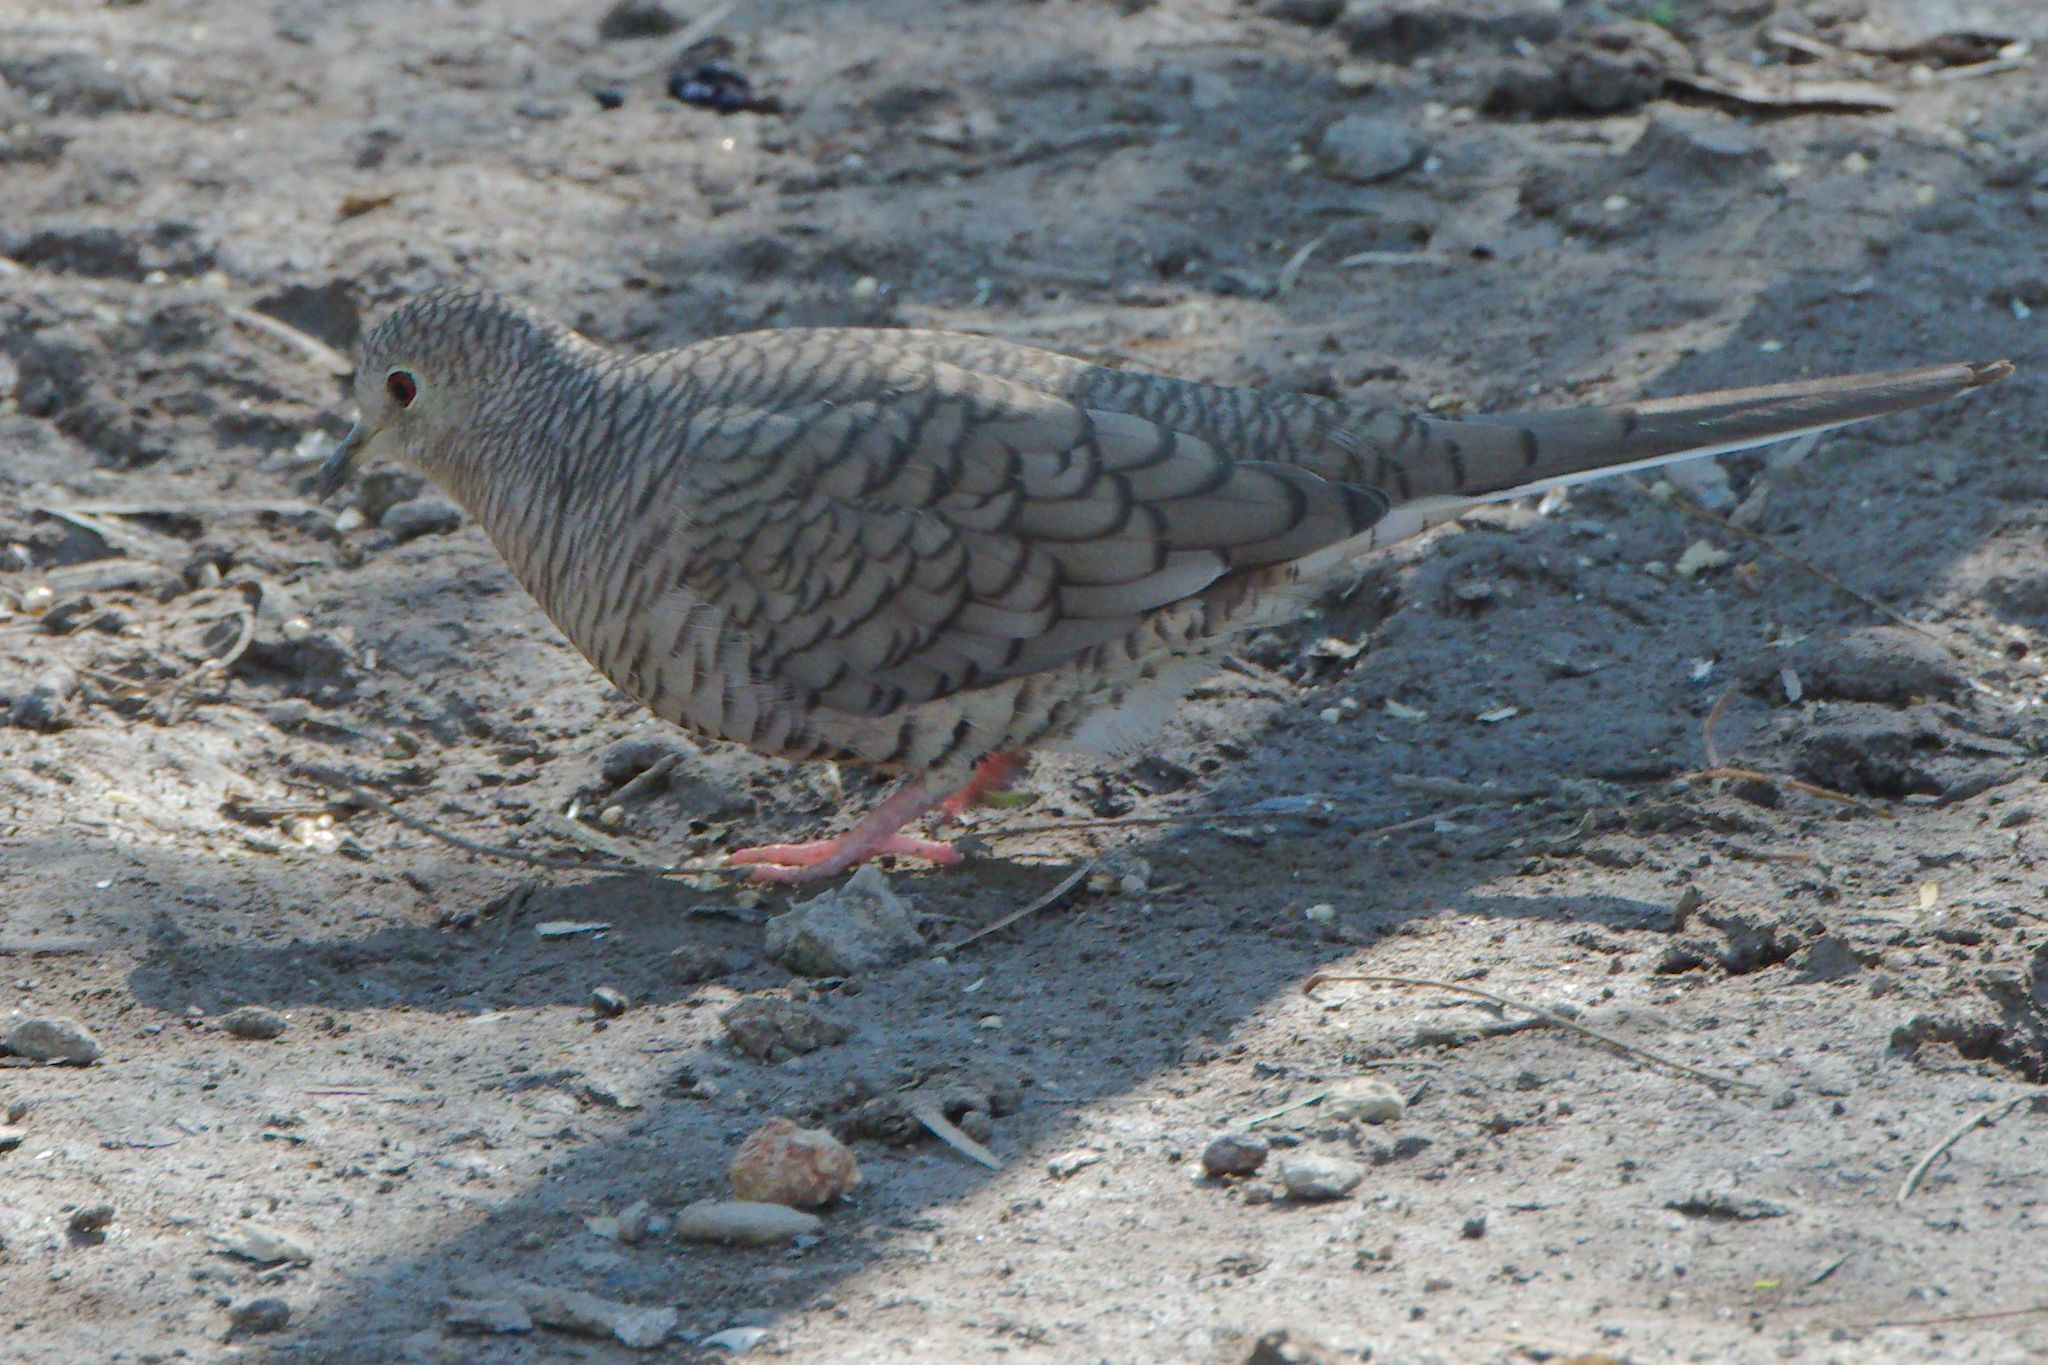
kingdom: Animalia
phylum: Chordata
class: Aves
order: Columbiformes
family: Columbidae
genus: Columbina
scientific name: Columbina inca
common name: Inca dove
